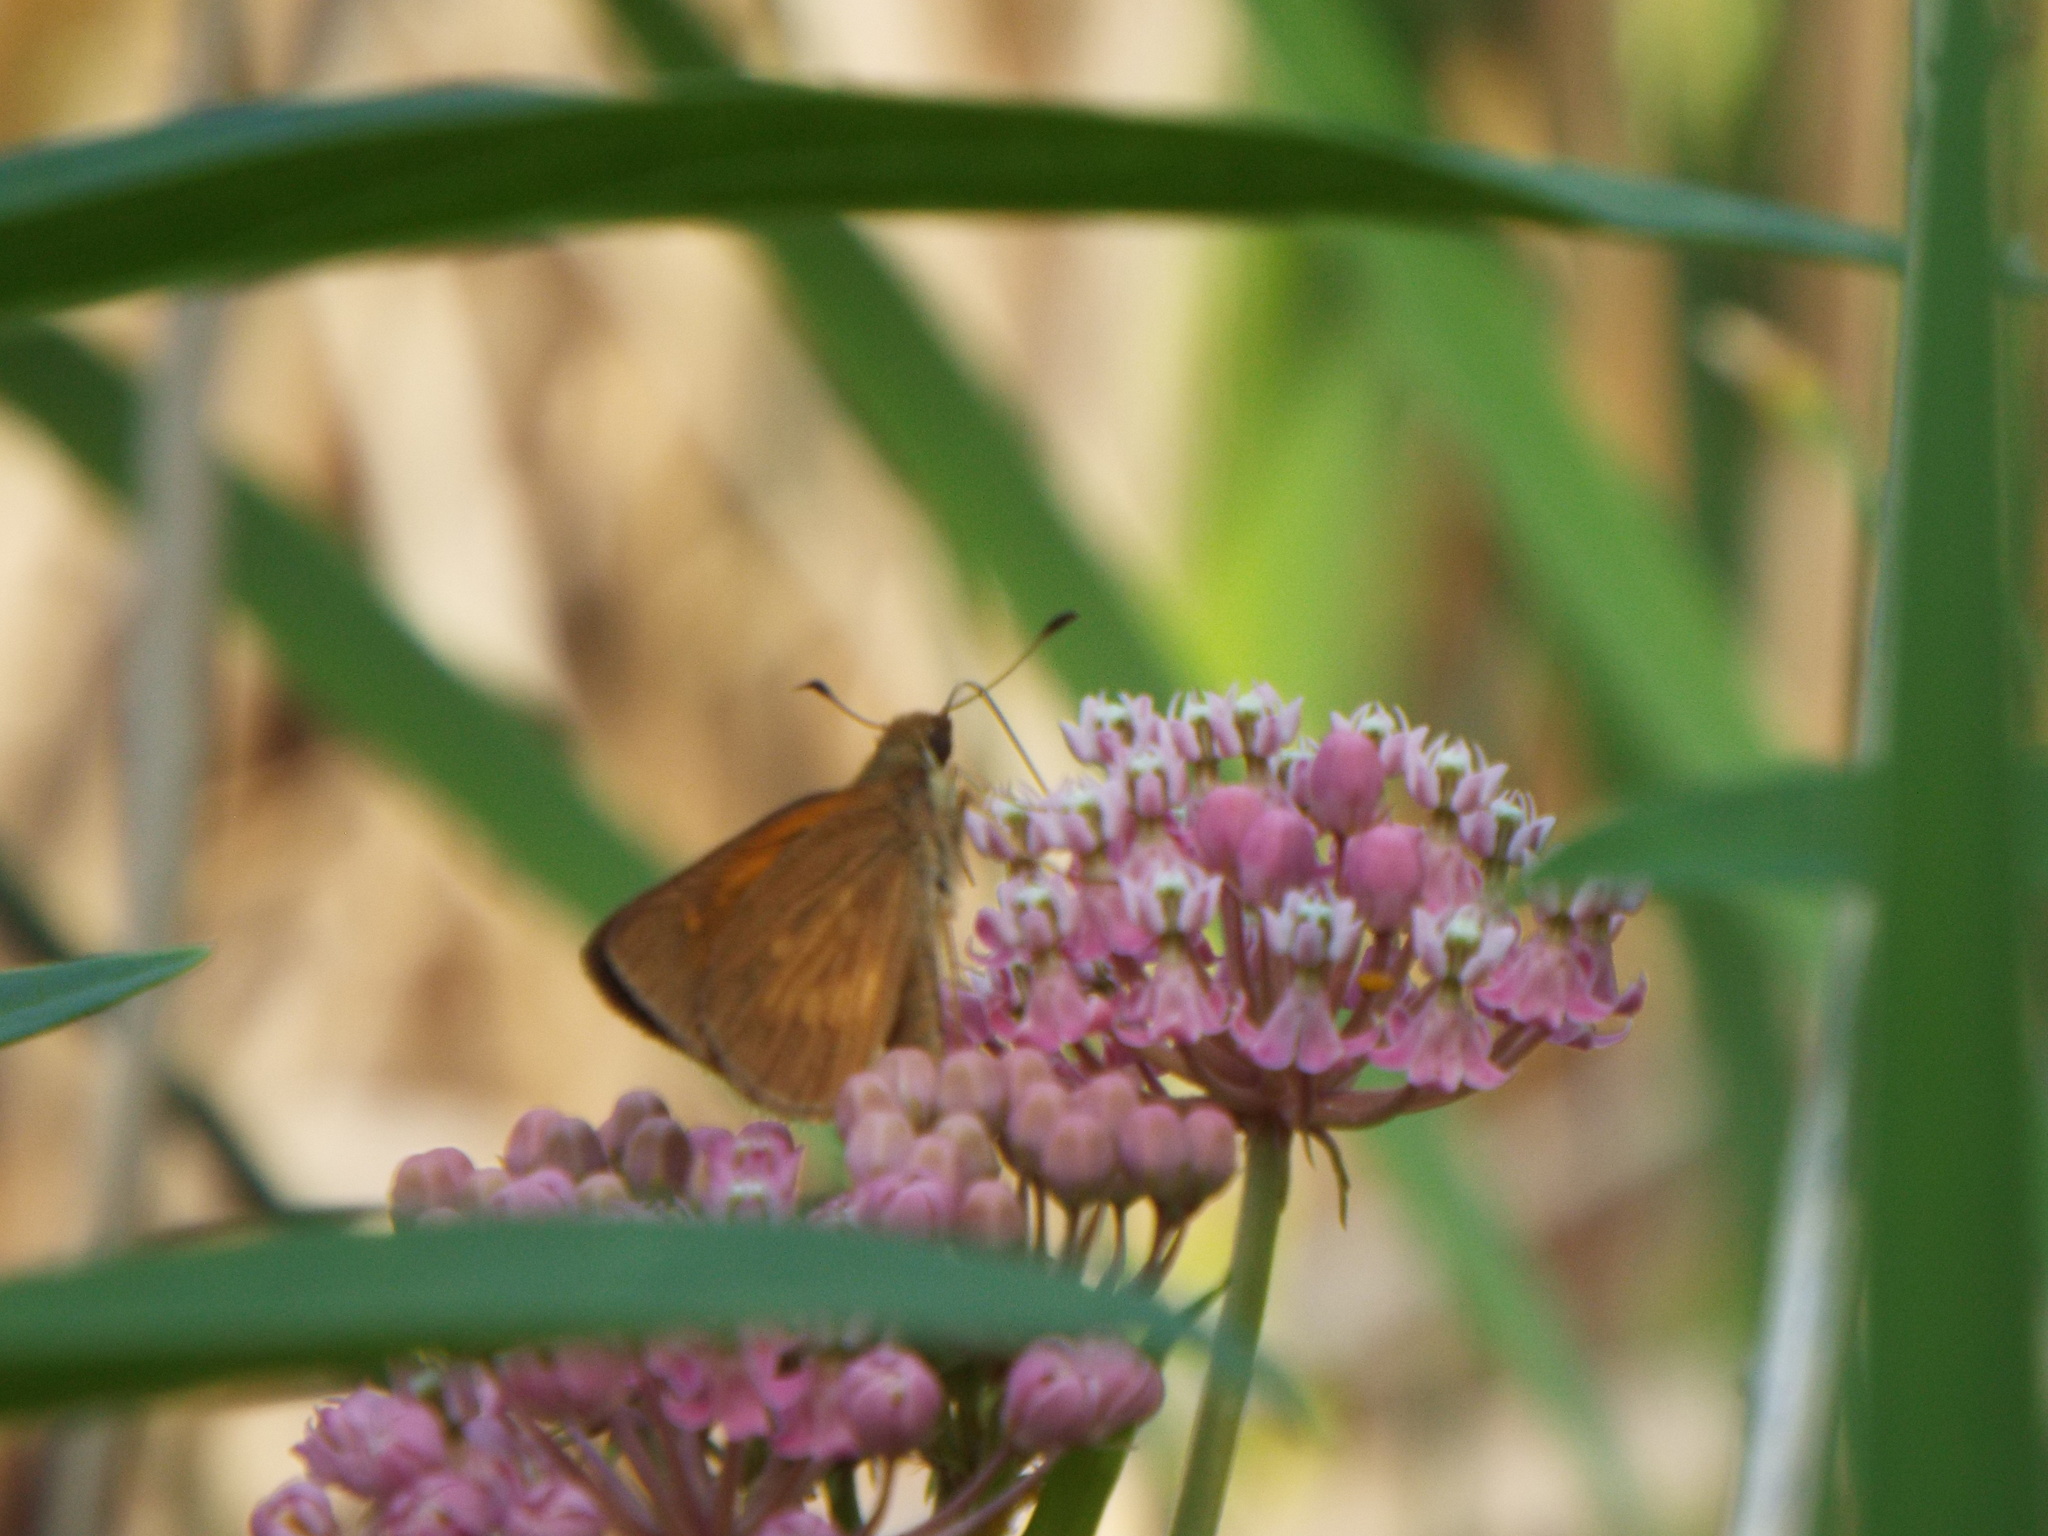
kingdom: Animalia
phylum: Arthropoda
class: Insecta
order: Lepidoptera
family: Hesperiidae
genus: Poanes
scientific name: Poanes viator
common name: Broad-winged skipper
